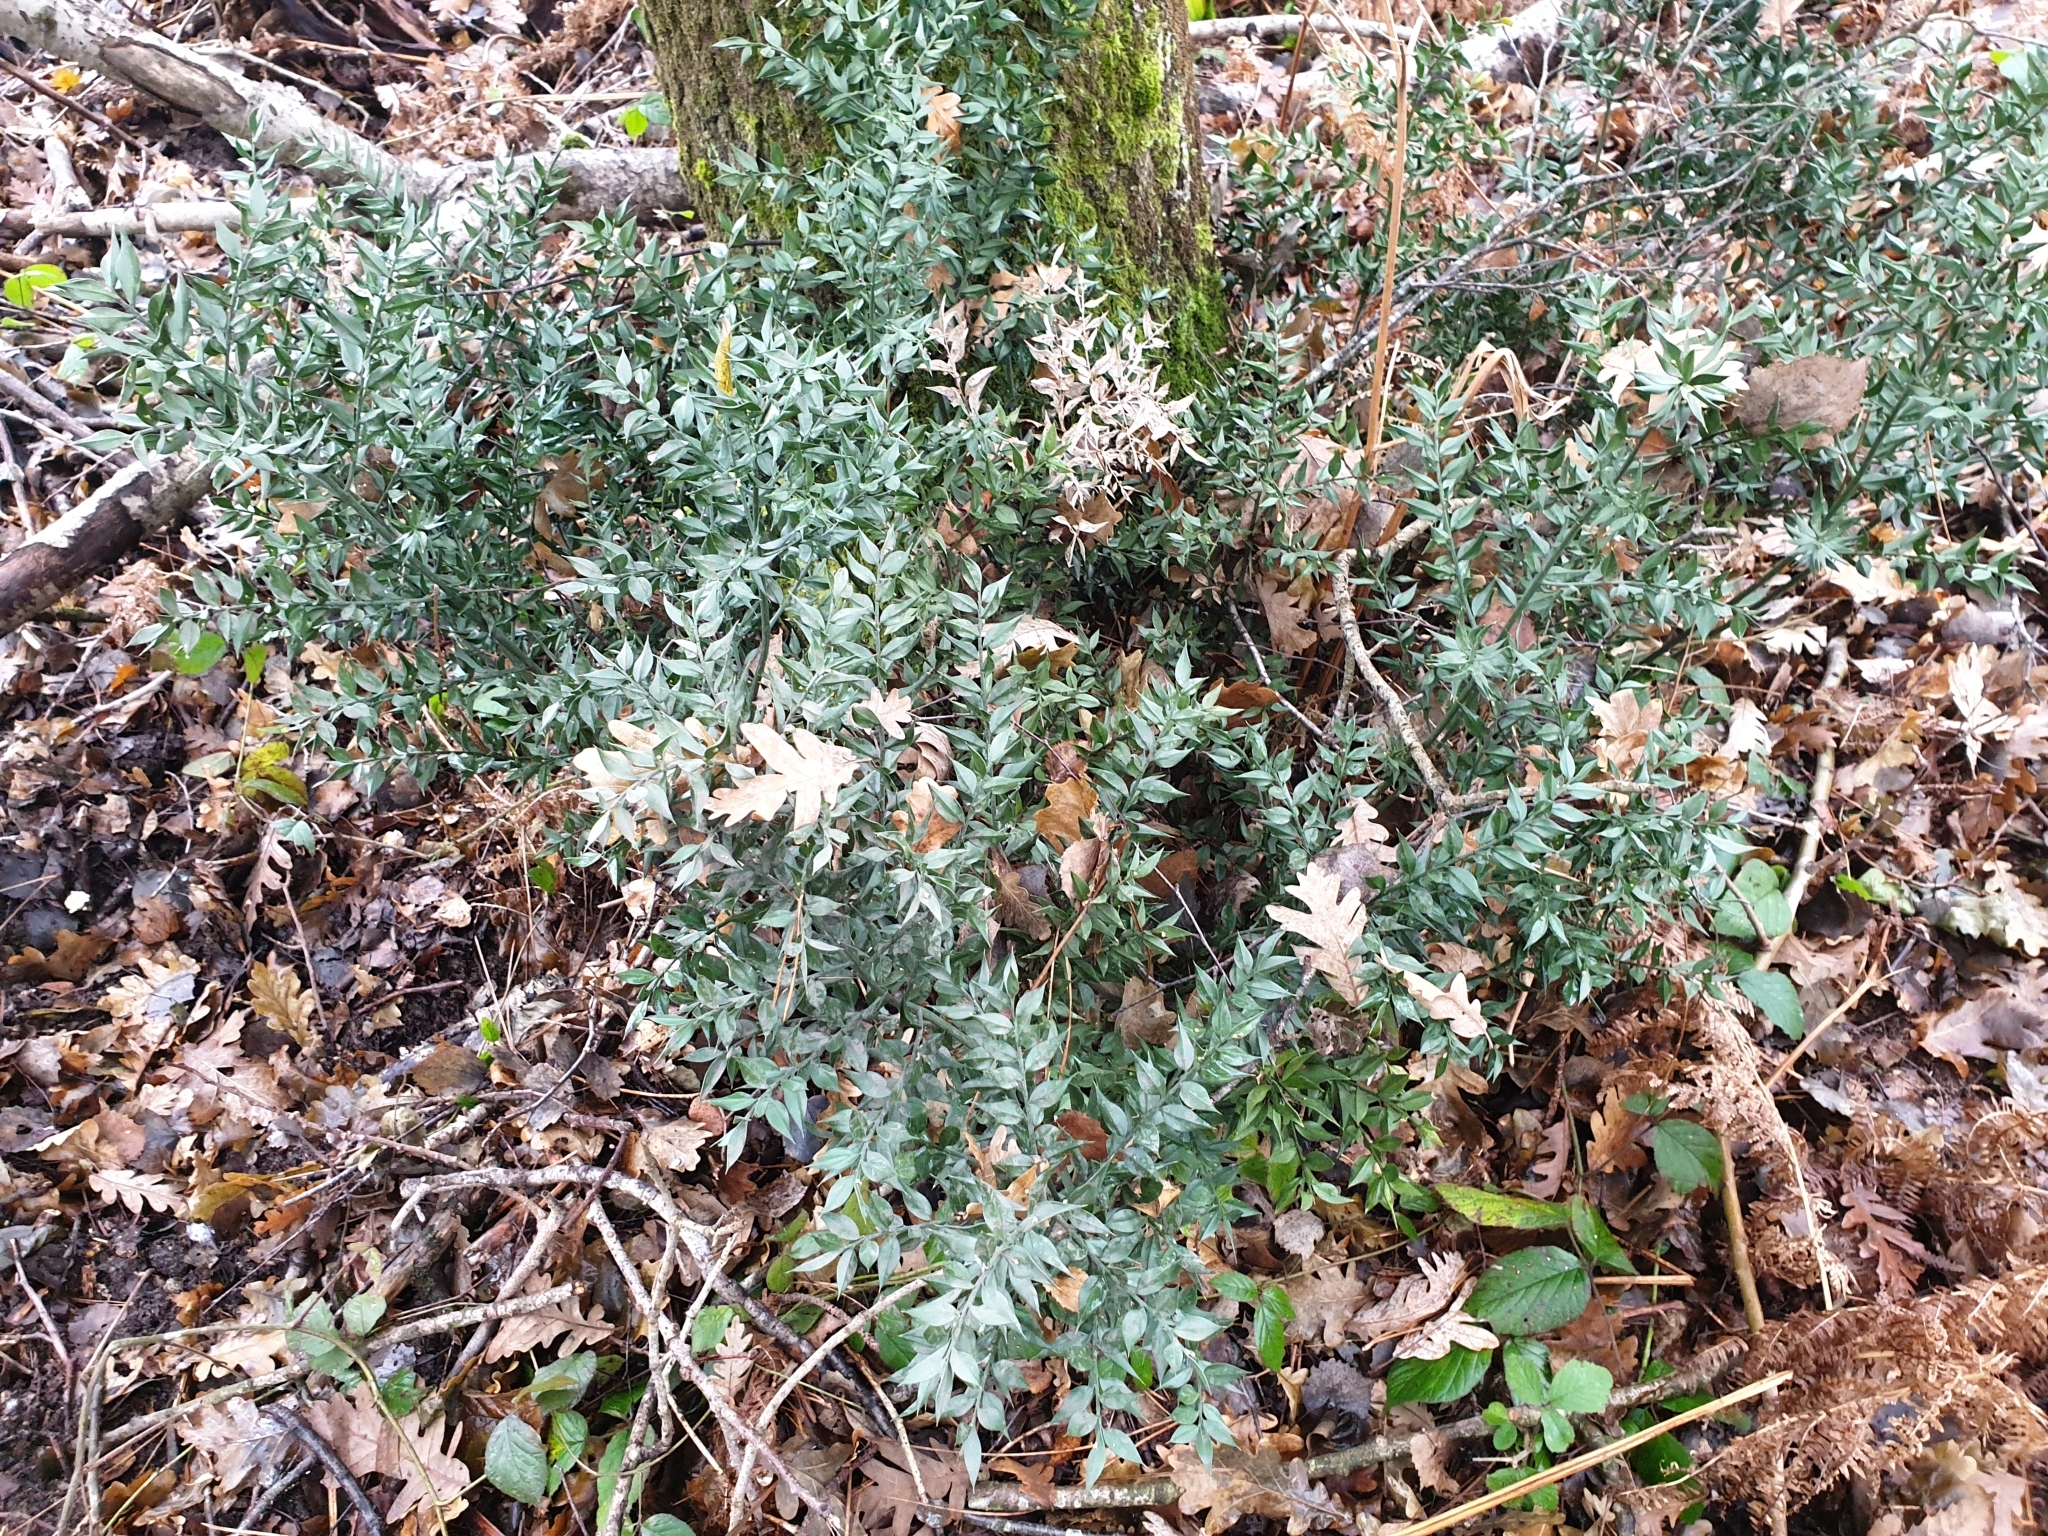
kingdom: Plantae
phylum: Tracheophyta
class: Liliopsida
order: Asparagales
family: Asparagaceae
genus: Ruscus
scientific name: Ruscus aculeatus
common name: Butcher's-broom
